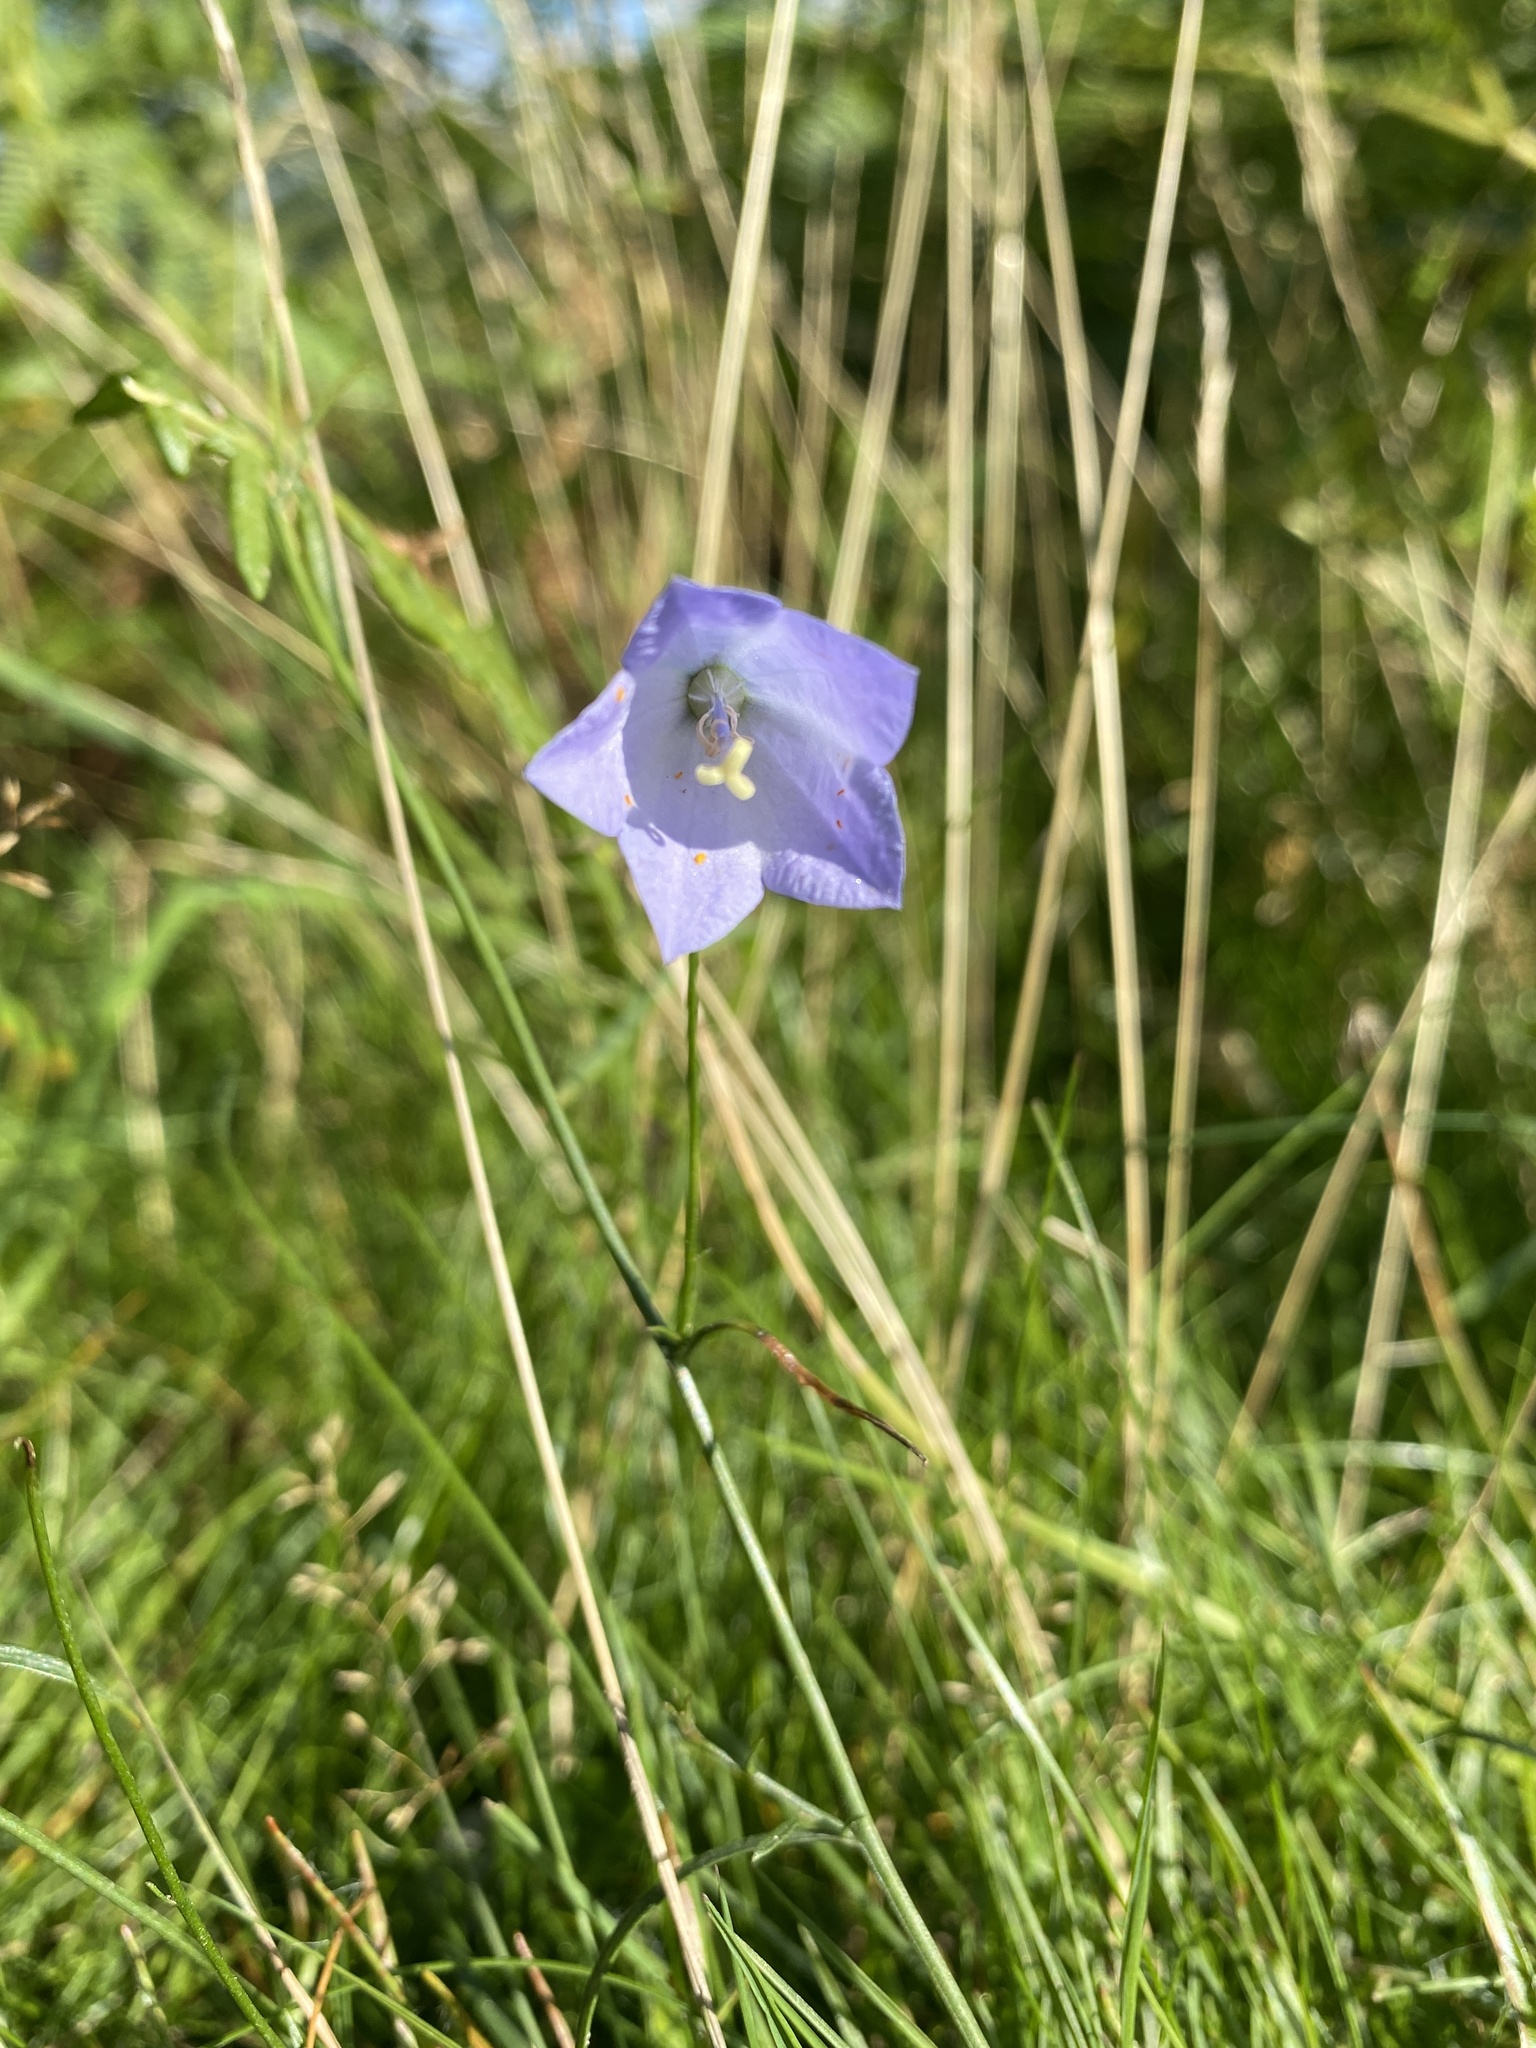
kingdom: Plantae
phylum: Tracheophyta
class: Magnoliopsida
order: Asterales
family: Campanulaceae
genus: Campanula
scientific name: Campanula rotundifolia
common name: Harebell
